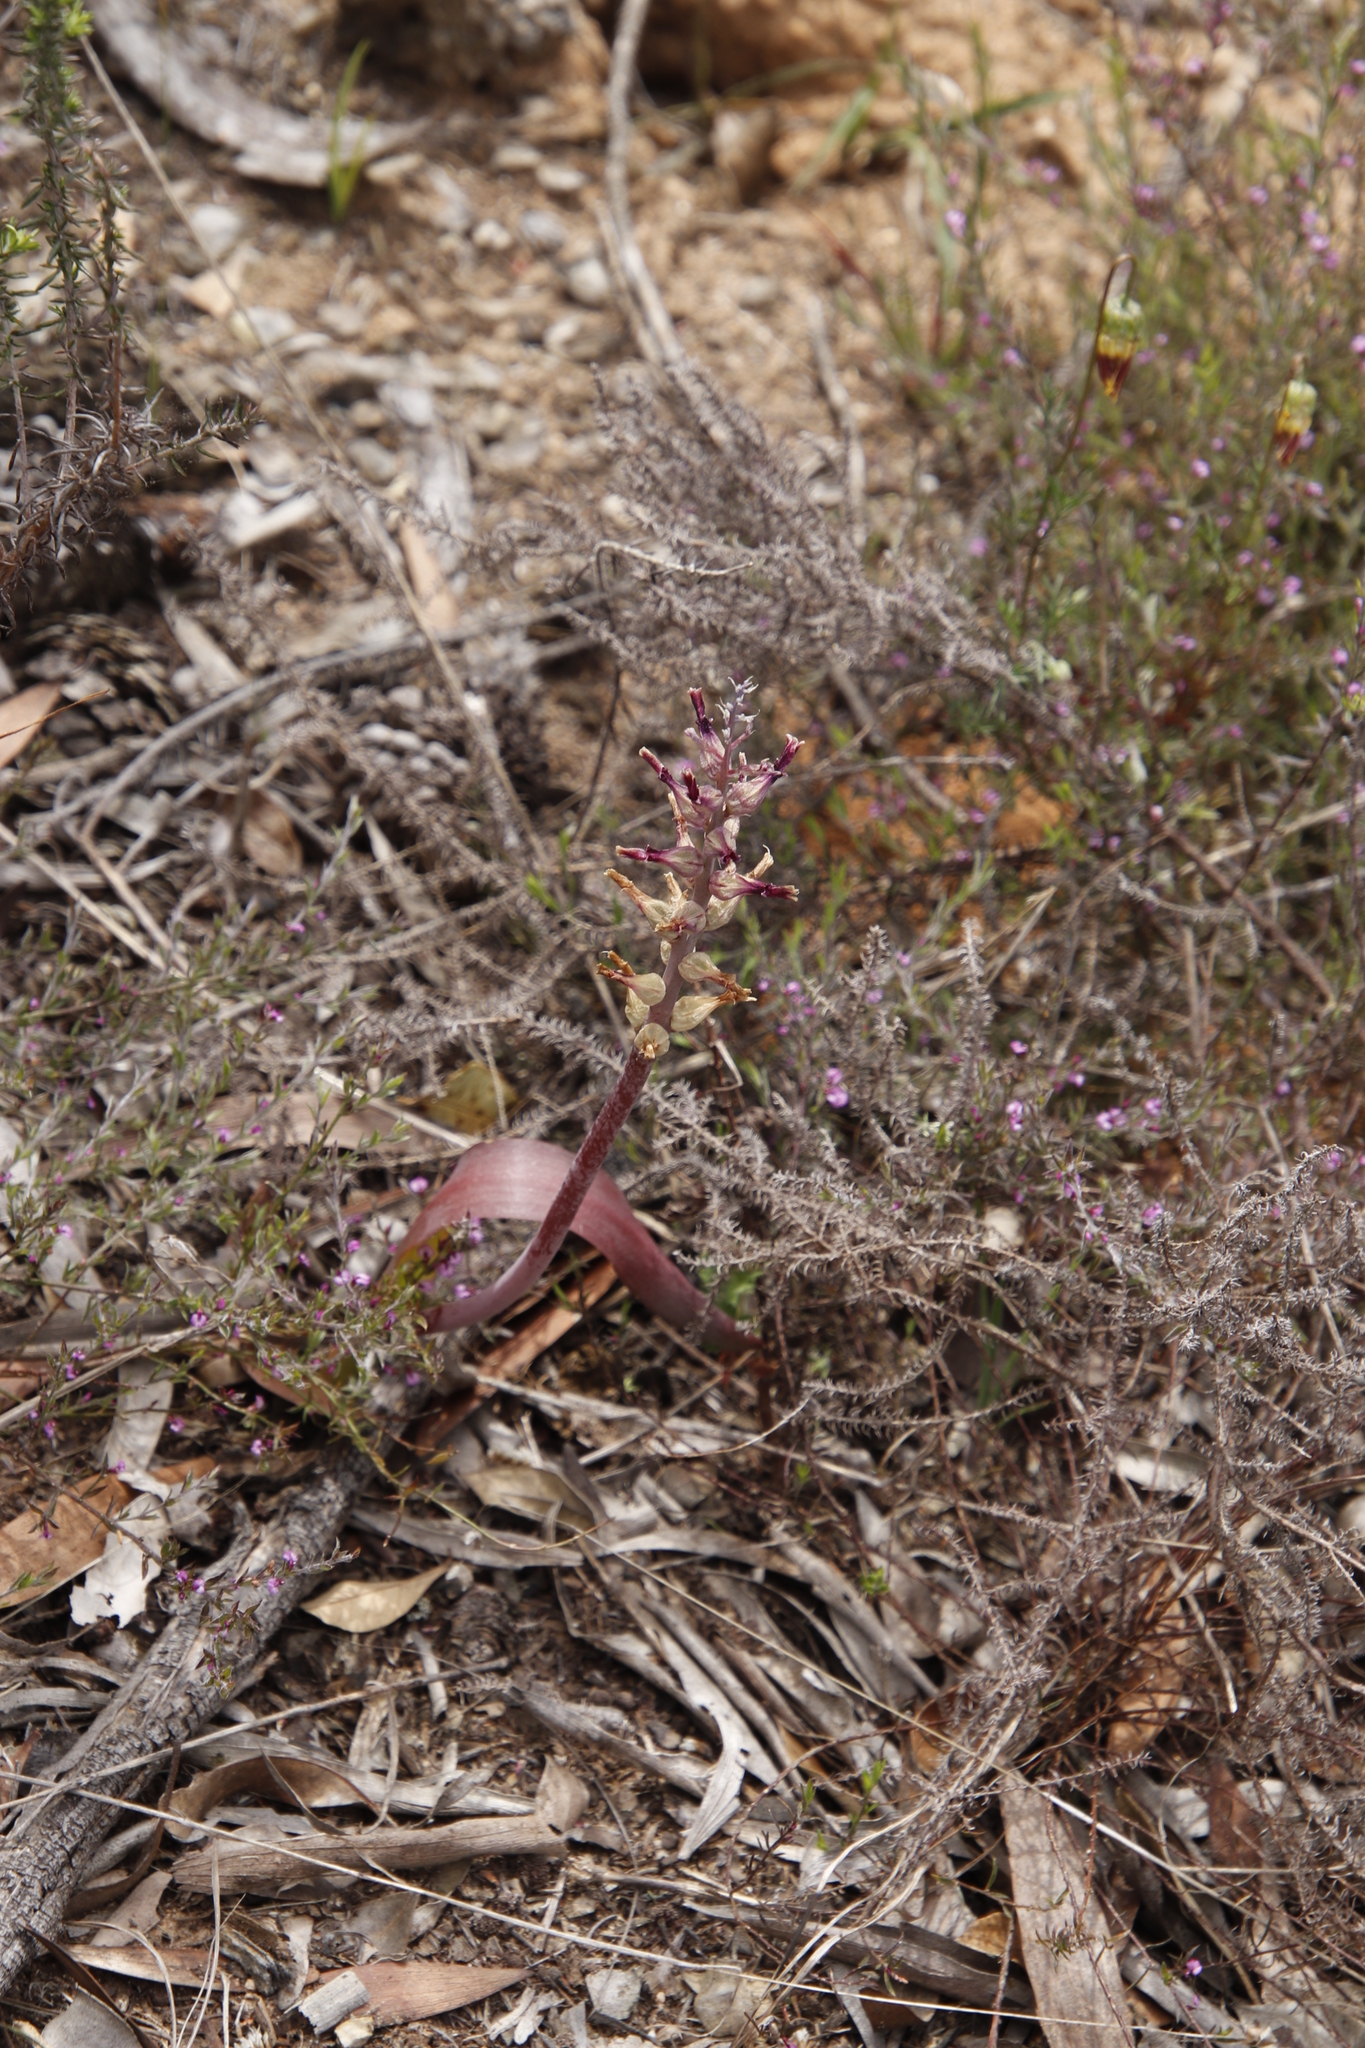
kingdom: Plantae
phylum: Tracheophyta
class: Liliopsida
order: Asparagales
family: Asparagaceae
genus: Lachenalia
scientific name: Lachenalia glaucina
